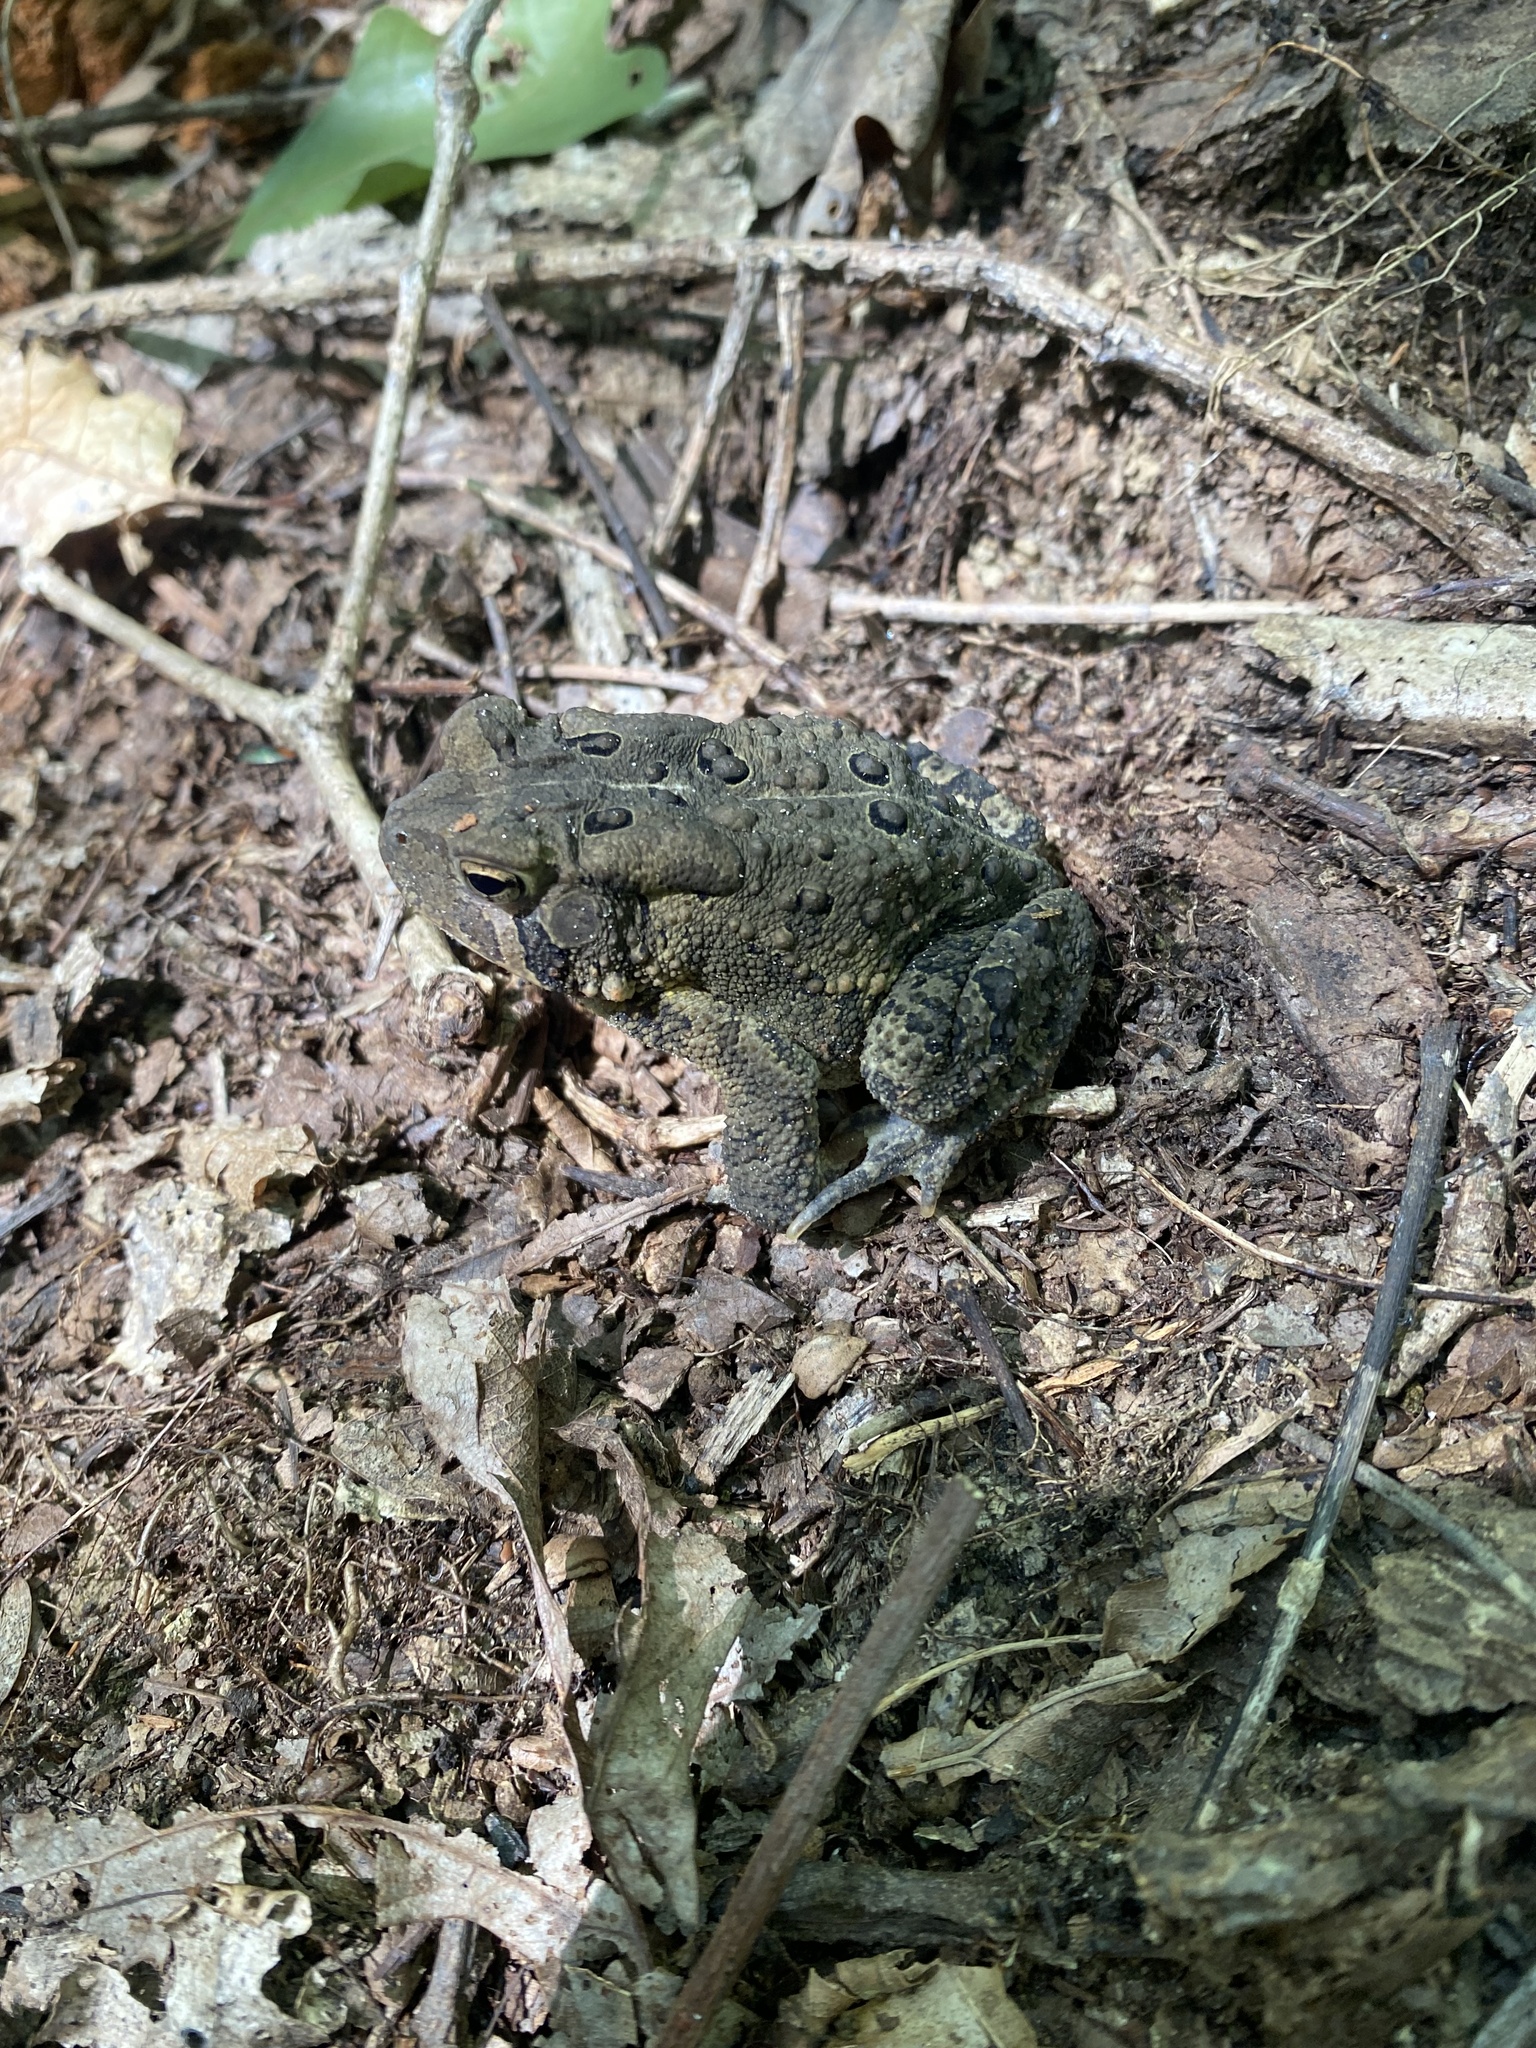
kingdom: Animalia
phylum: Chordata
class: Amphibia
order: Anura
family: Bufonidae
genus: Anaxyrus
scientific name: Anaxyrus americanus
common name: American toad
